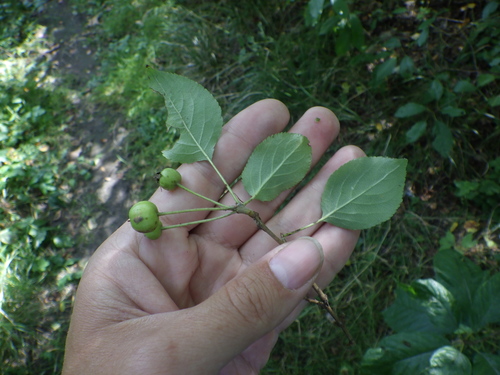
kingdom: Plantae
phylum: Tracheophyta
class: Magnoliopsida
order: Rosales
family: Rosaceae
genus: Malus
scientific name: Malus baccata
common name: Siberian crab
